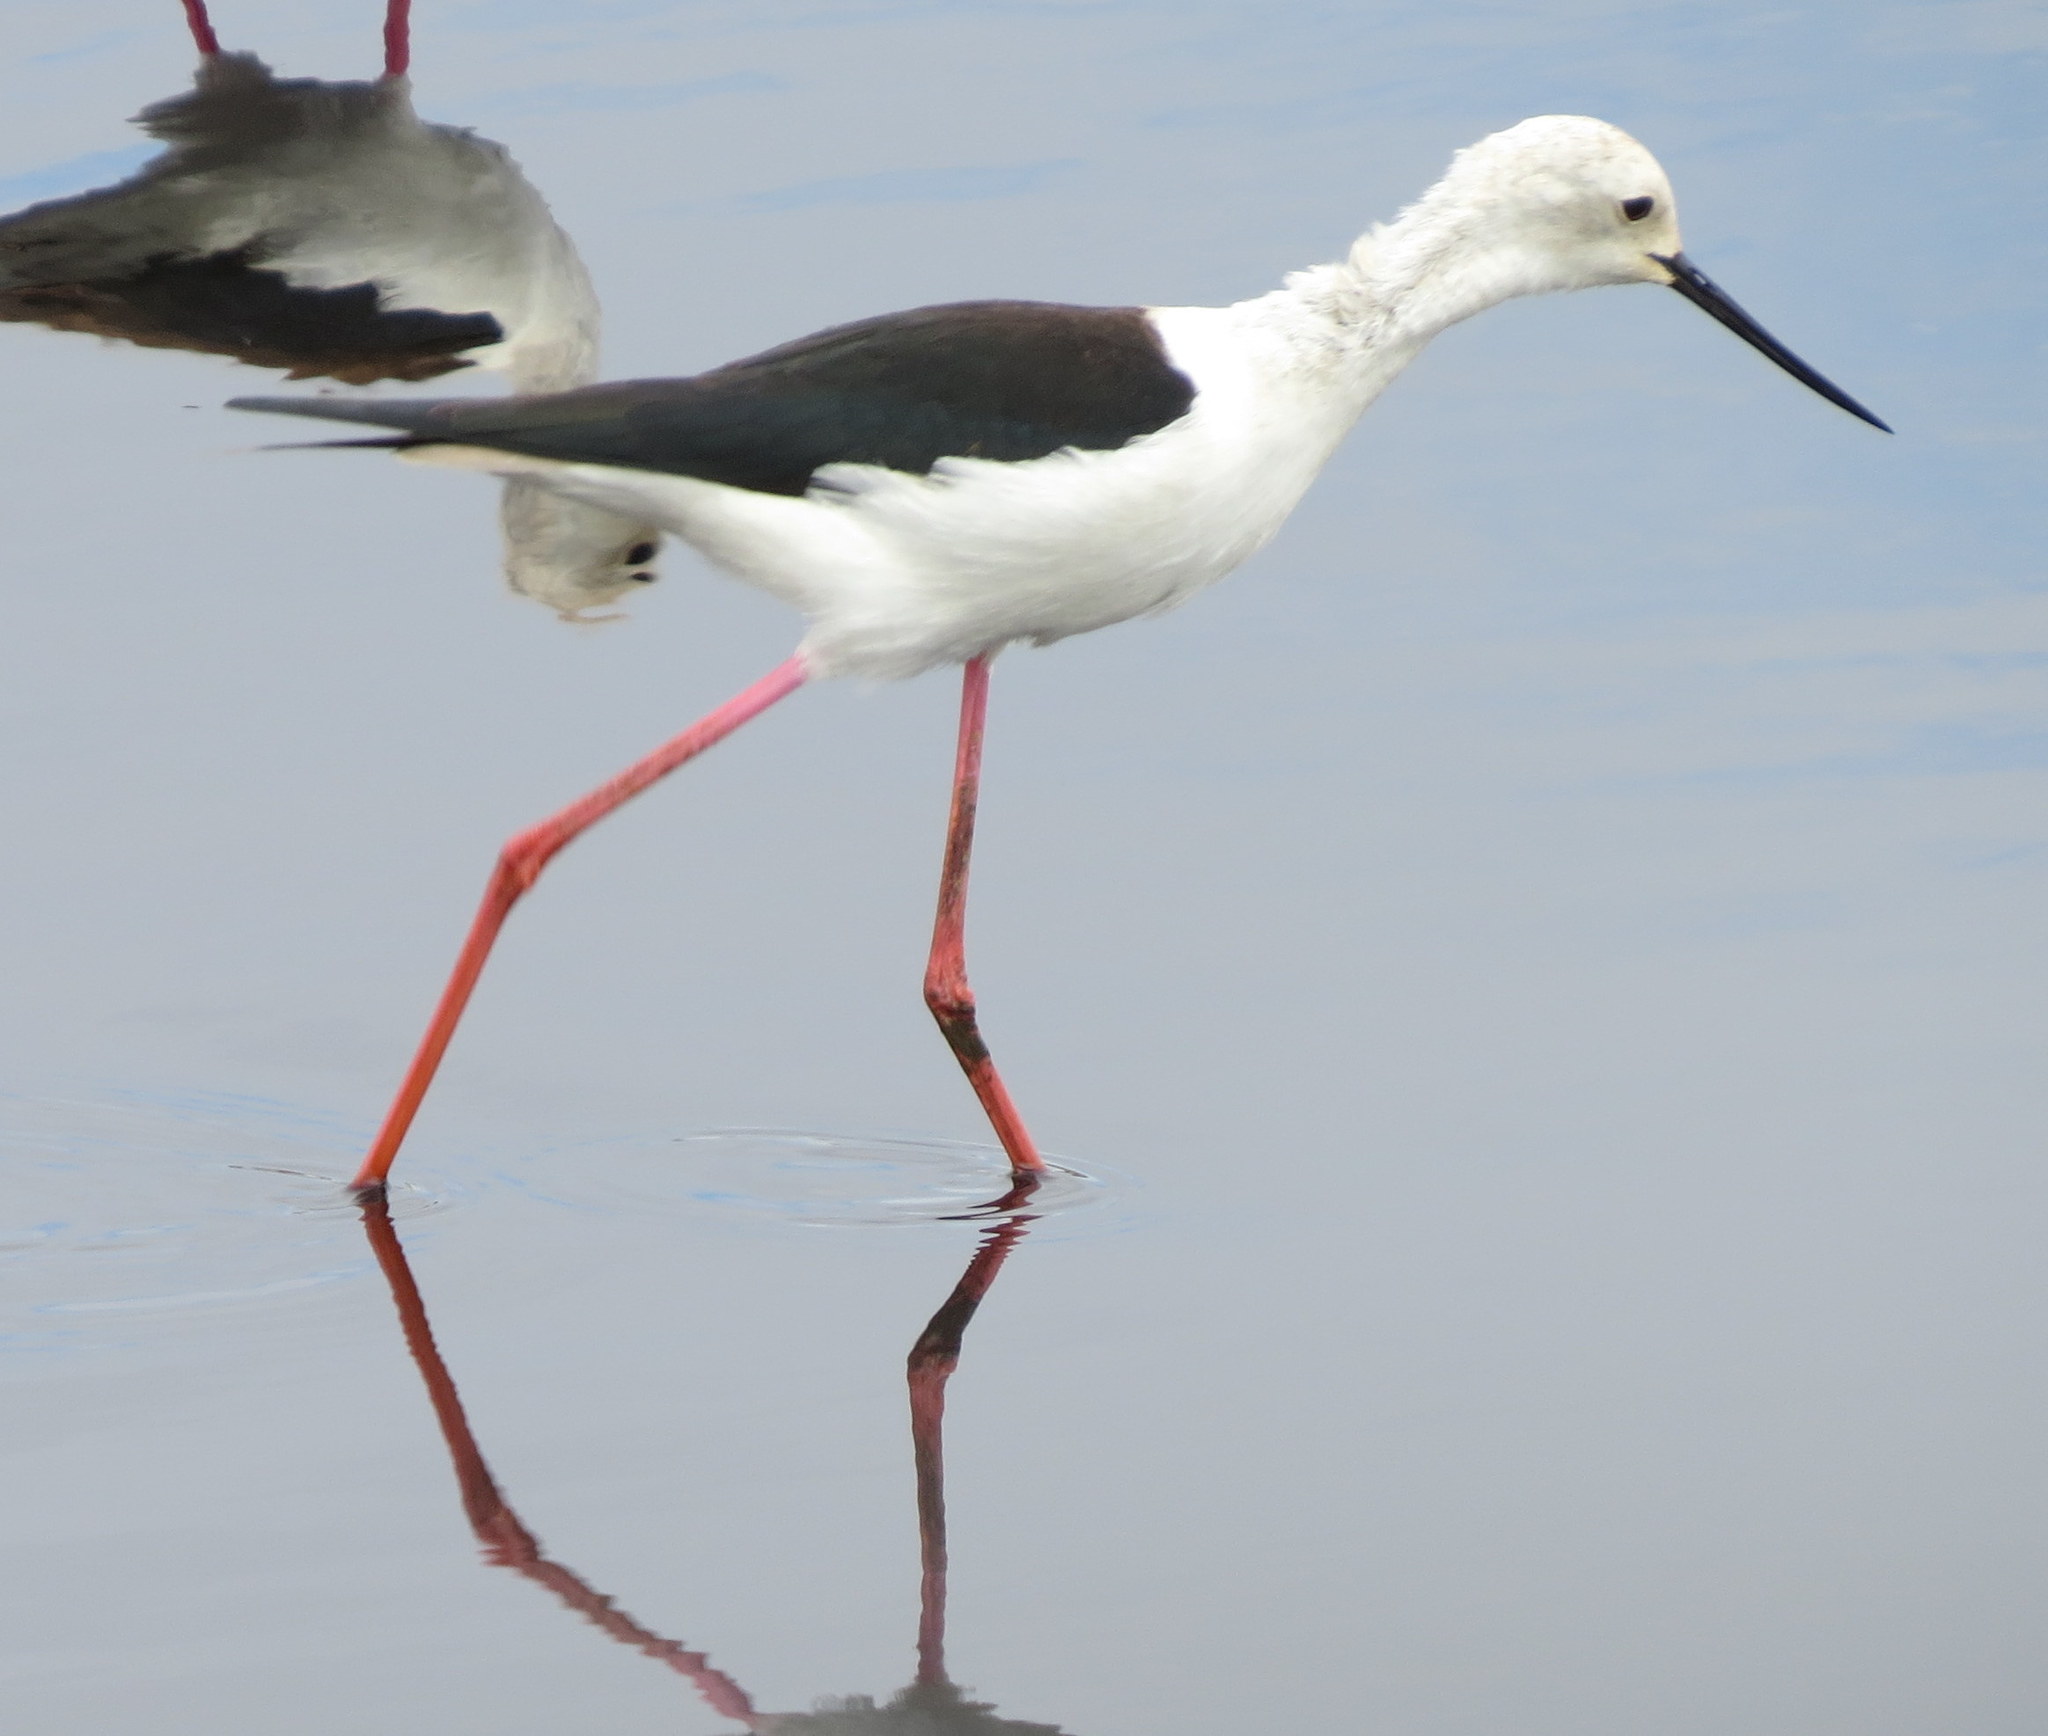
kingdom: Animalia
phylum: Chordata
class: Aves
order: Charadriiformes
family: Recurvirostridae
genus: Himantopus
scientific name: Himantopus himantopus
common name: Black-winged stilt
